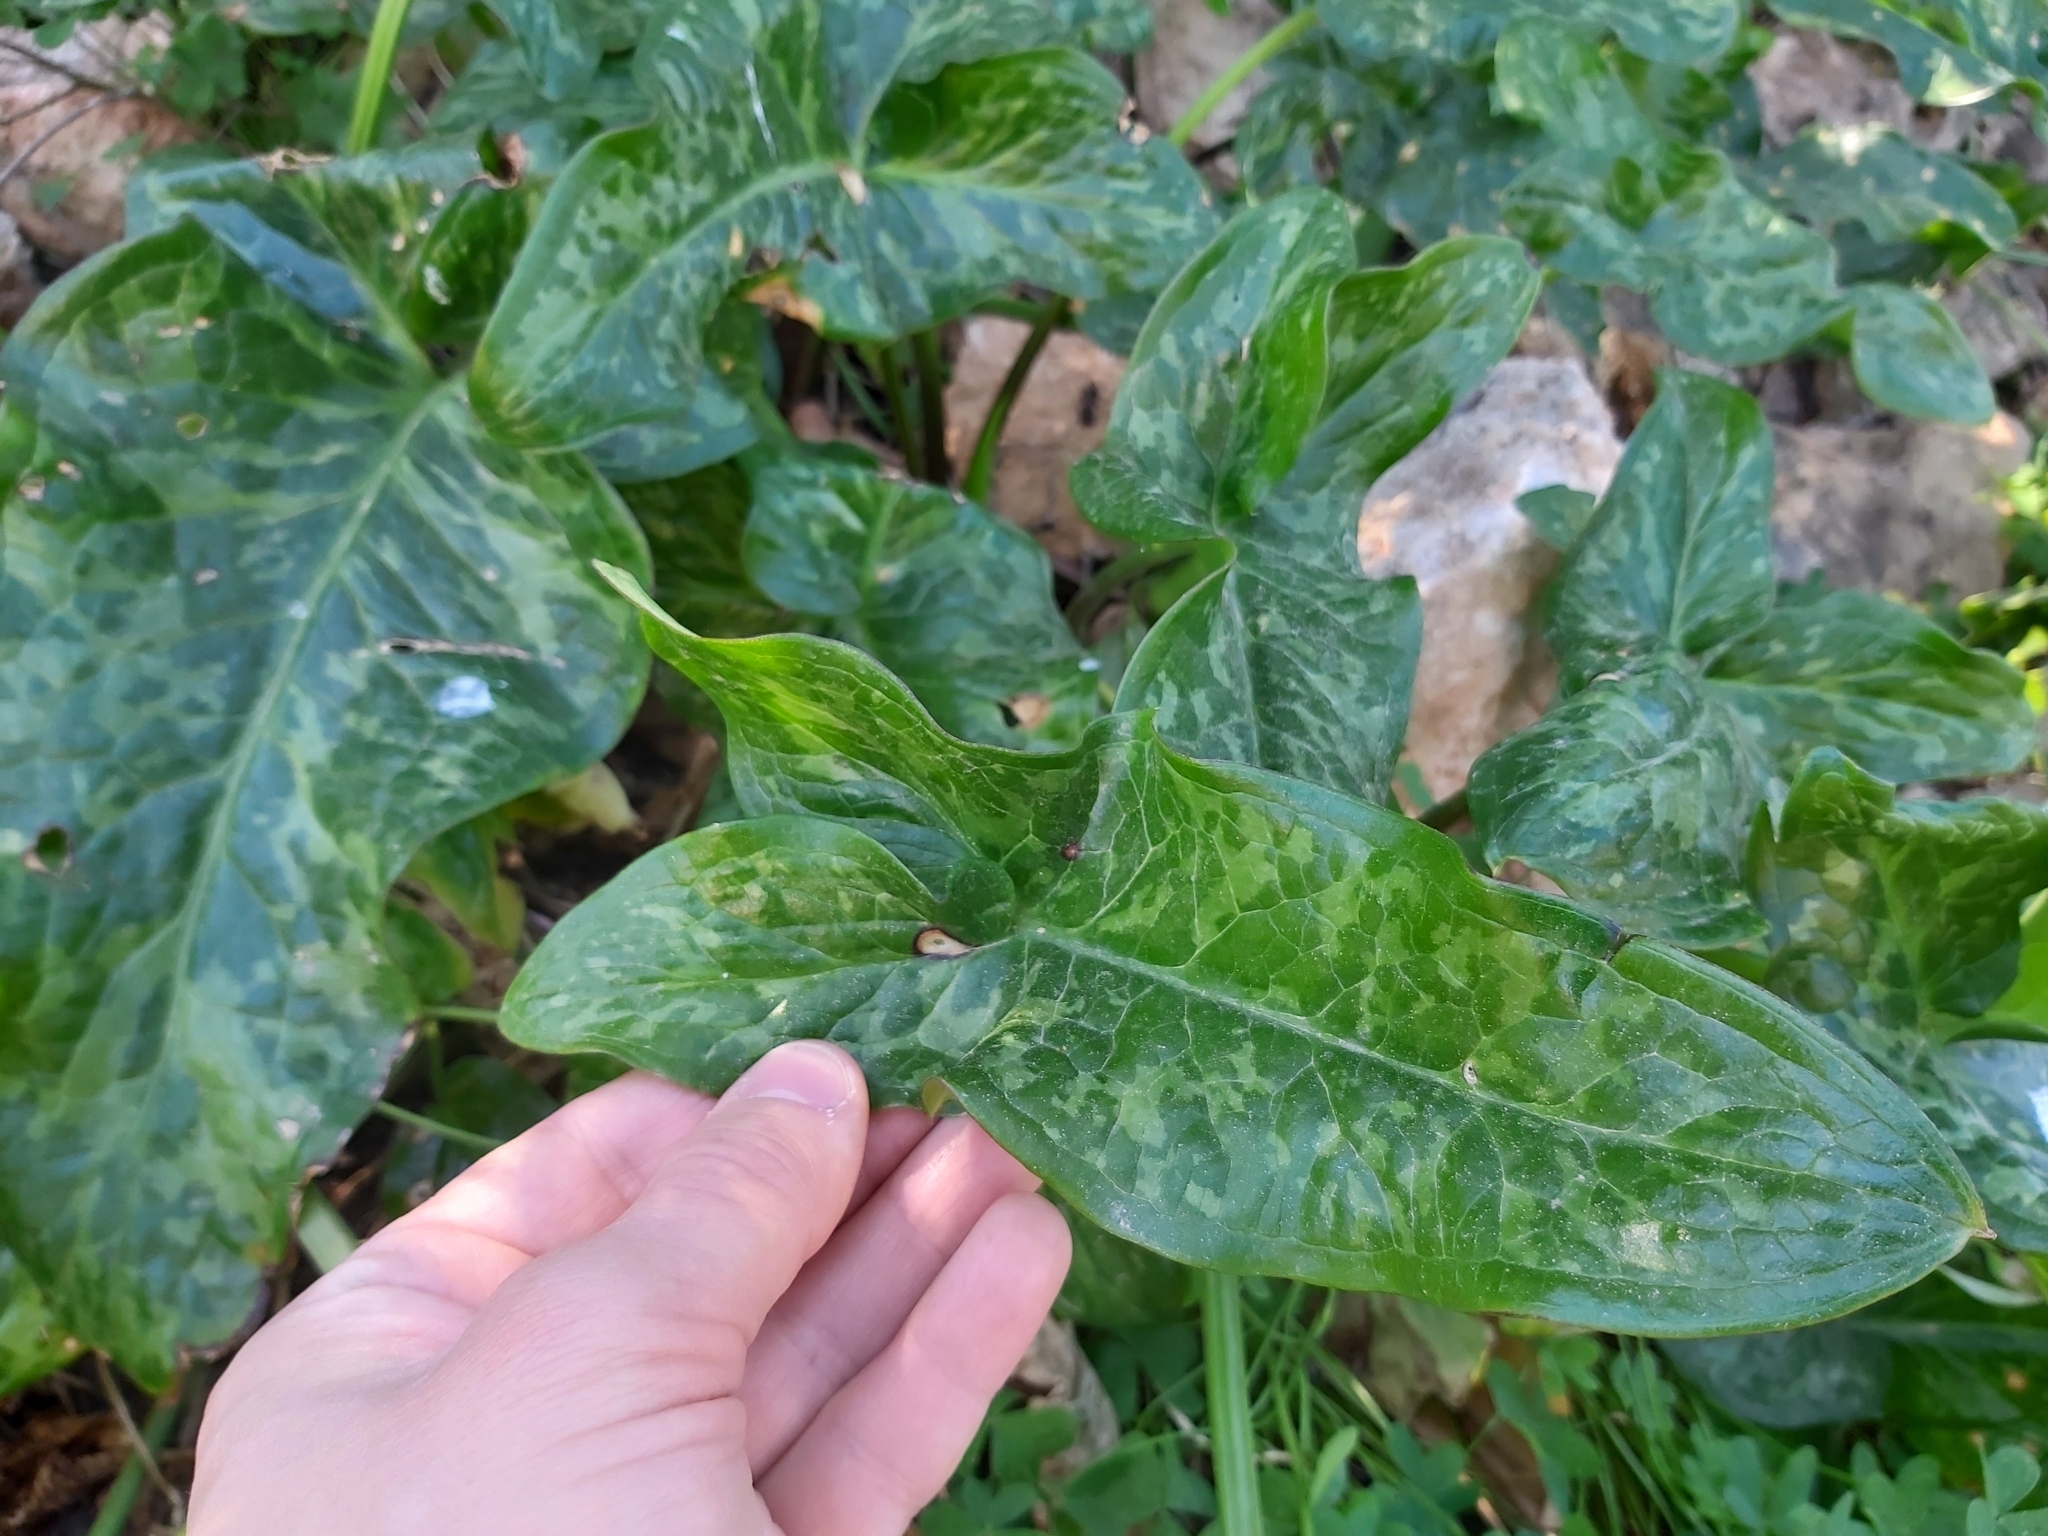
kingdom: Plantae
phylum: Tracheophyta
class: Liliopsida
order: Alismatales
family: Araceae
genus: Arum
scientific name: Arum italicum
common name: Italian lords-and-ladies
